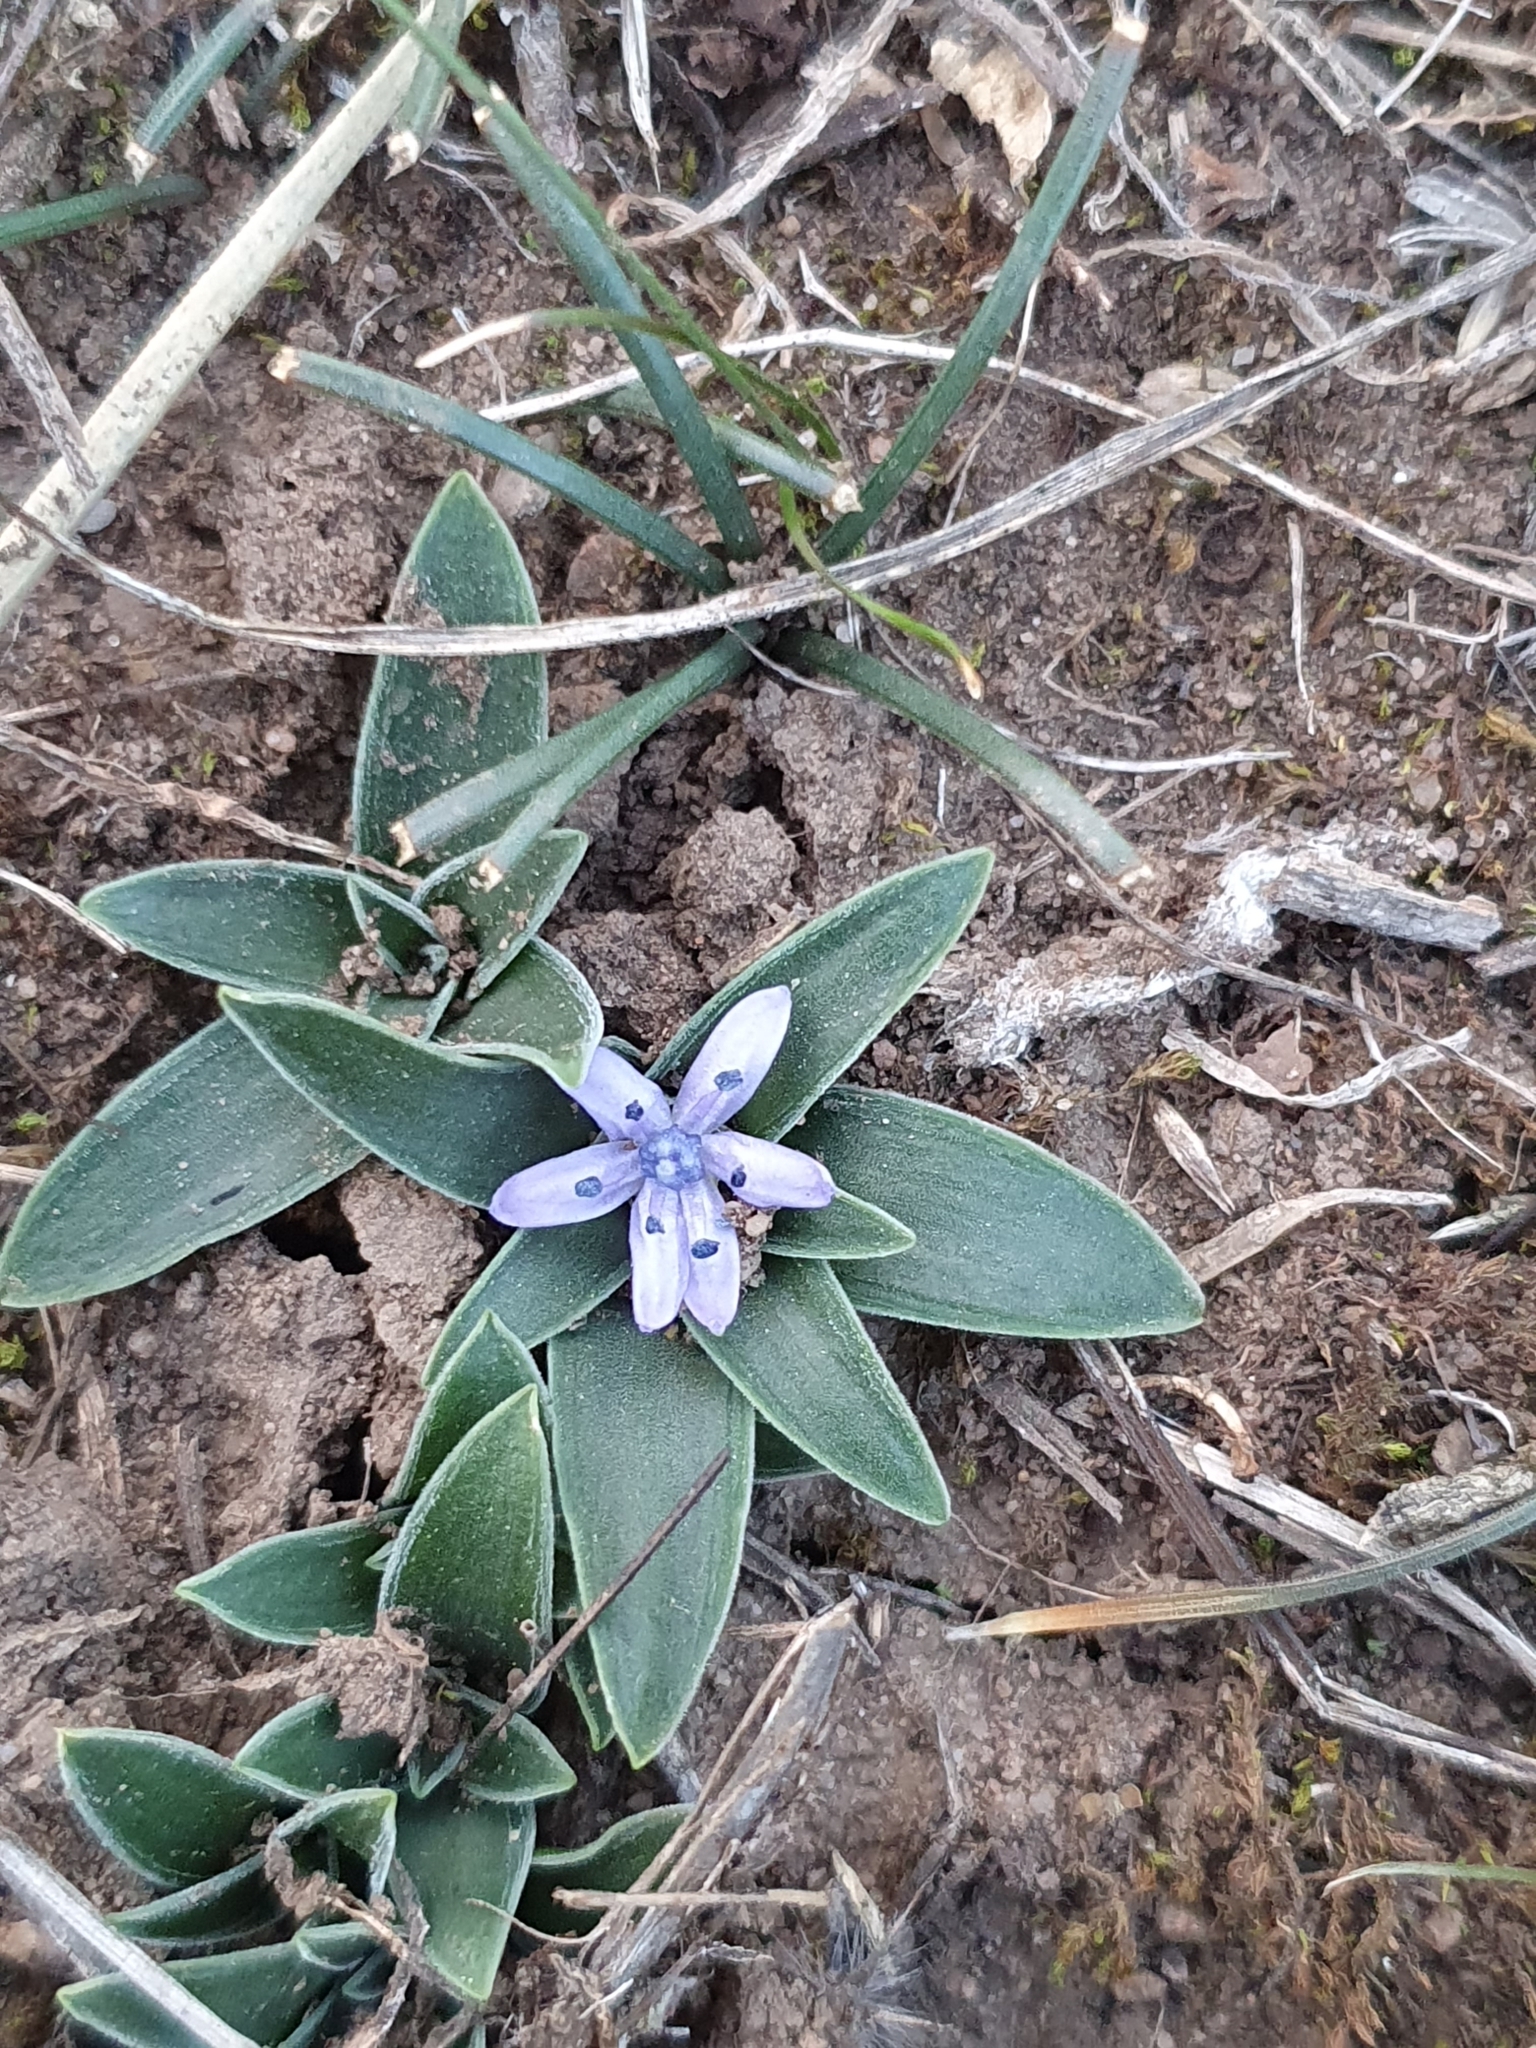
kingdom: Plantae
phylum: Tracheophyta
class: Liliopsida
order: Asparagales
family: Asparagaceae
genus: Hyacinthoides
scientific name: Hyacinthoides lingulata
